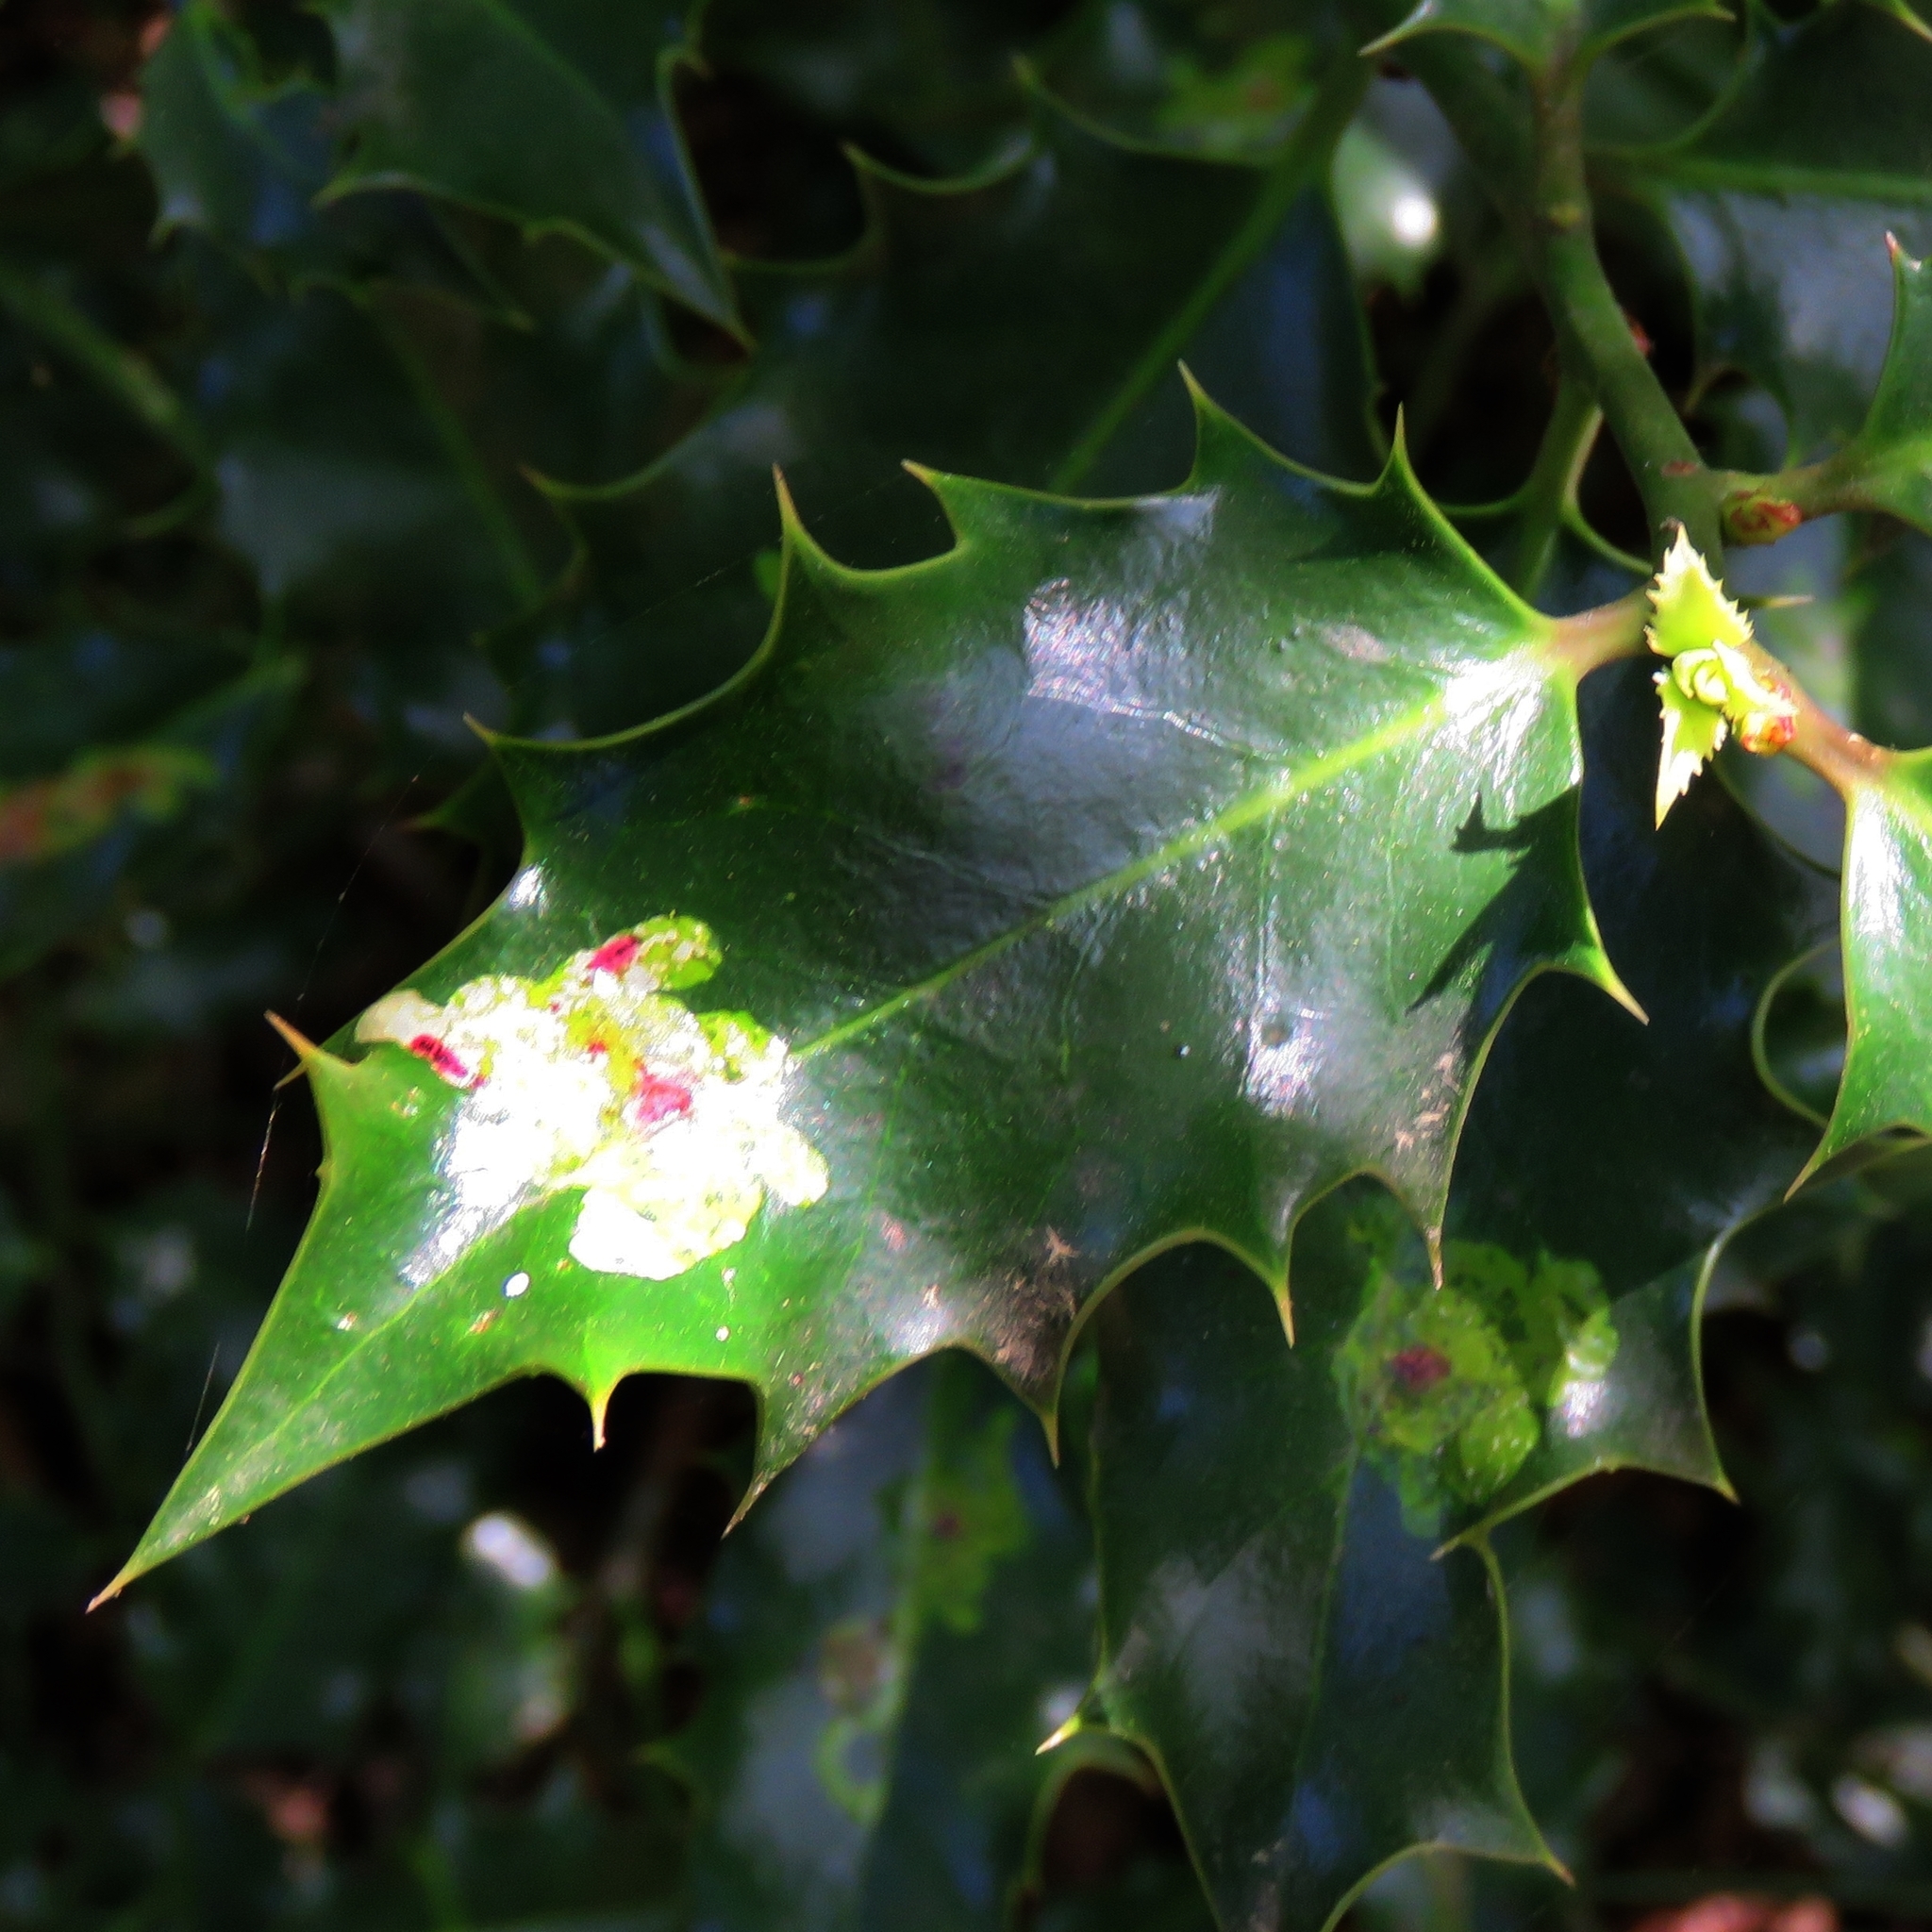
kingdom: Animalia
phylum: Arthropoda
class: Insecta
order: Diptera
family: Agromyzidae
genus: Phytomyza
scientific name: Phytomyza ilicis
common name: Holly leafminer
